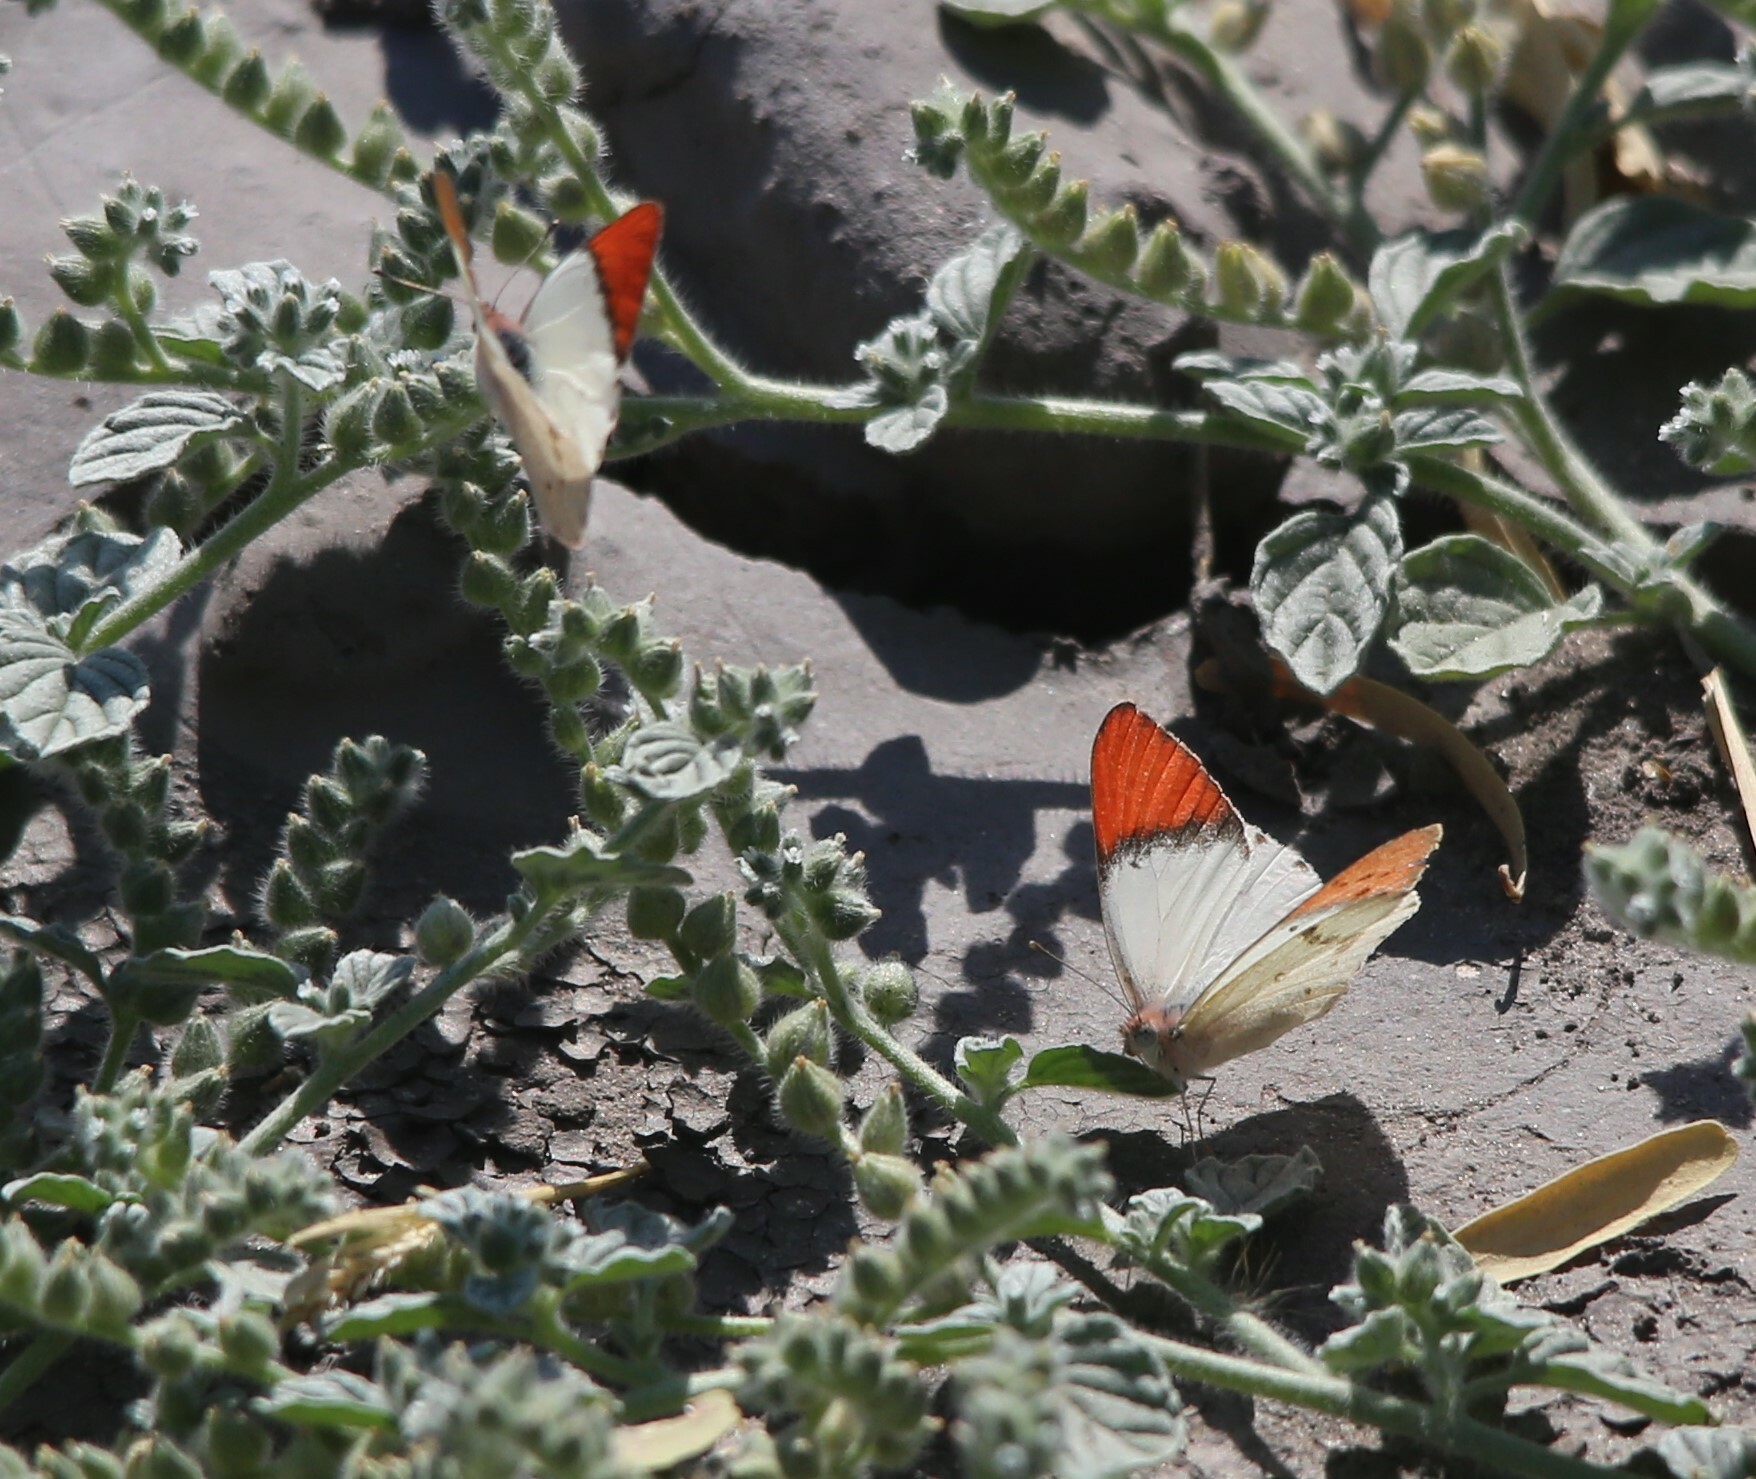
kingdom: Animalia
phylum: Arthropoda
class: Insecta
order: Lepidoptera
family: Pieridae
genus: Colotis
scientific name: Colotis annae
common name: Scarlet tip
